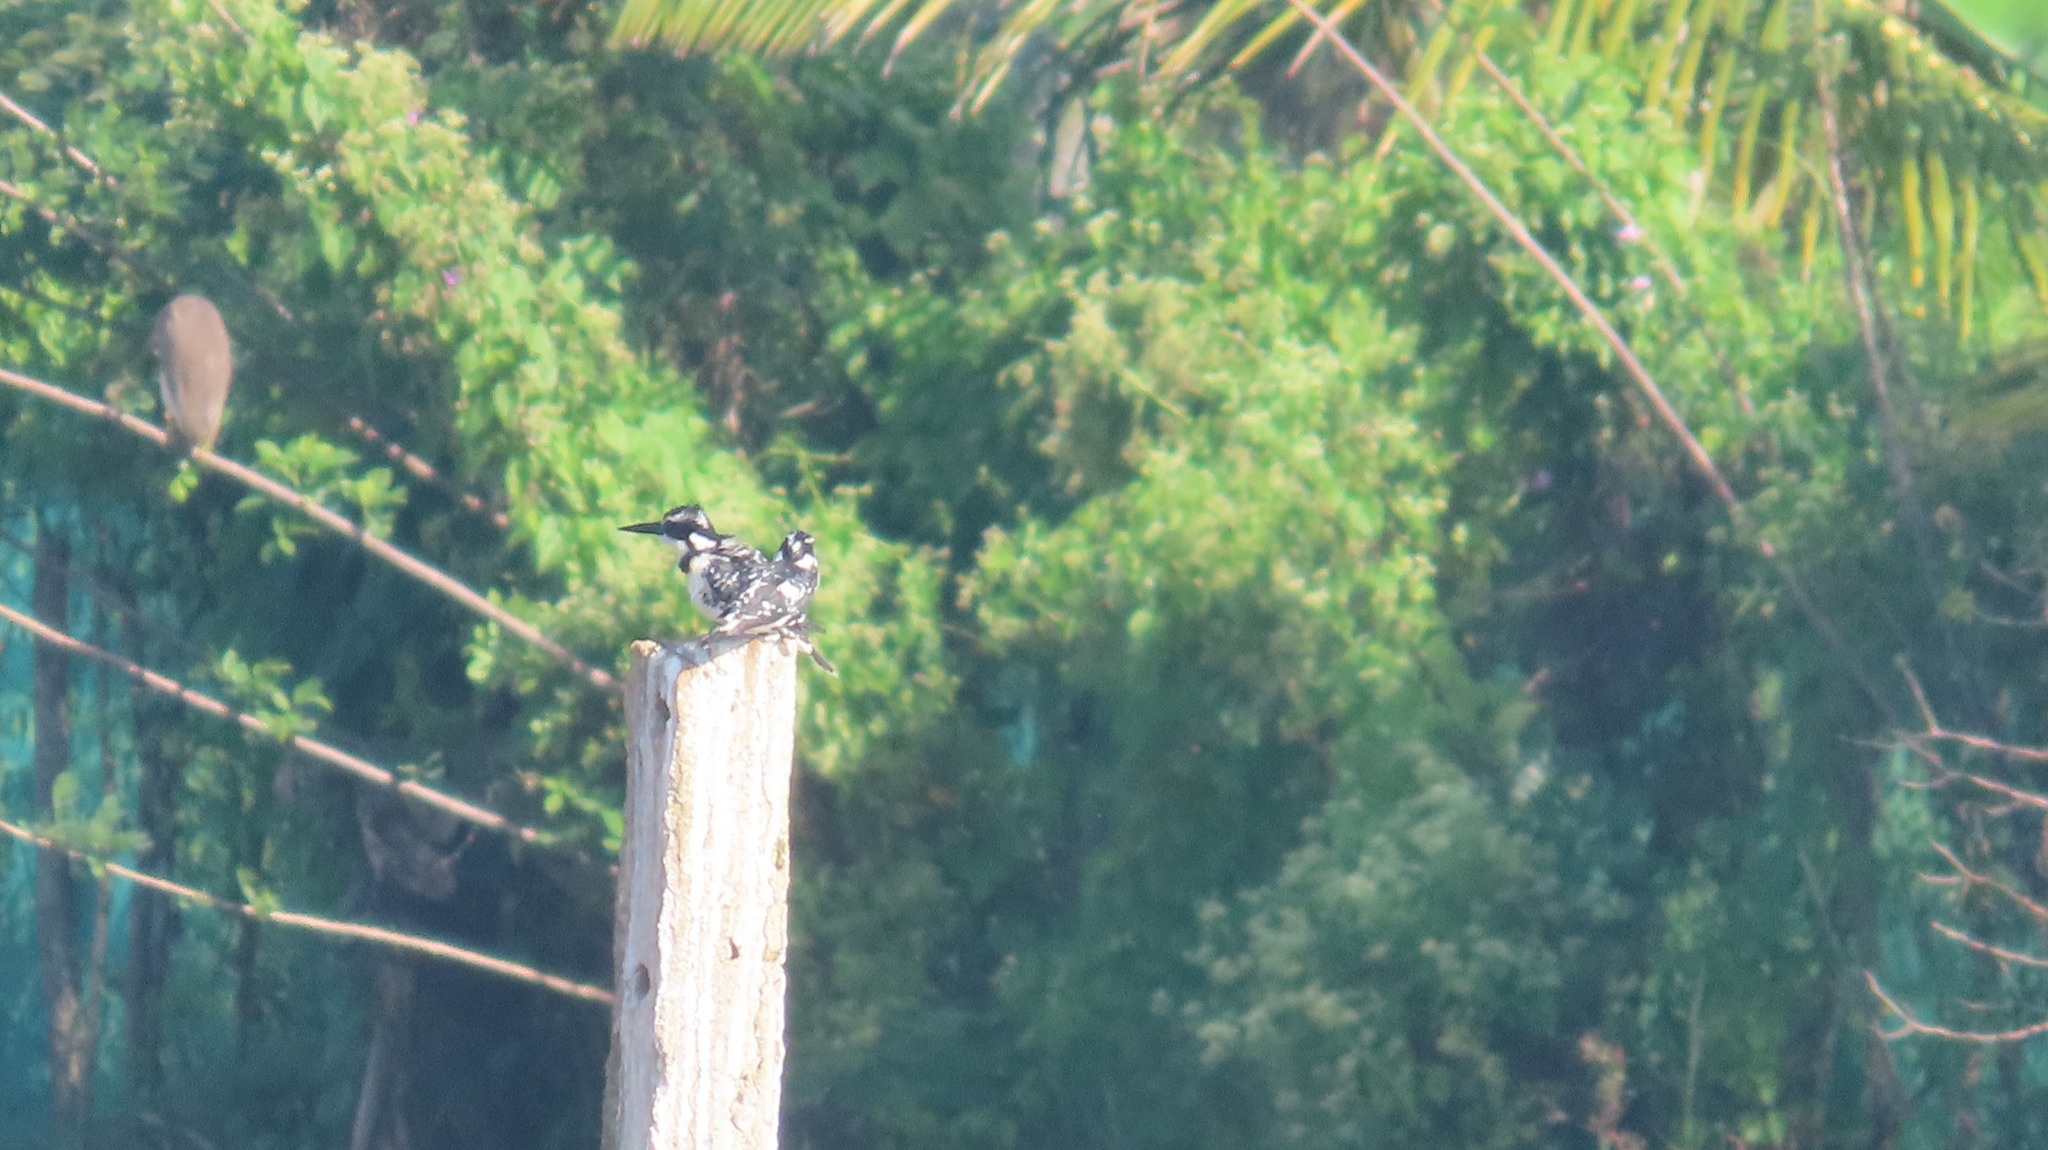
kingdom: Animalia
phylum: Chordata
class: Aves
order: Coraciiformes
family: Alcedinidae
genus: Ceryle
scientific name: Ceryle rudis
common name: Pied kingfisher
